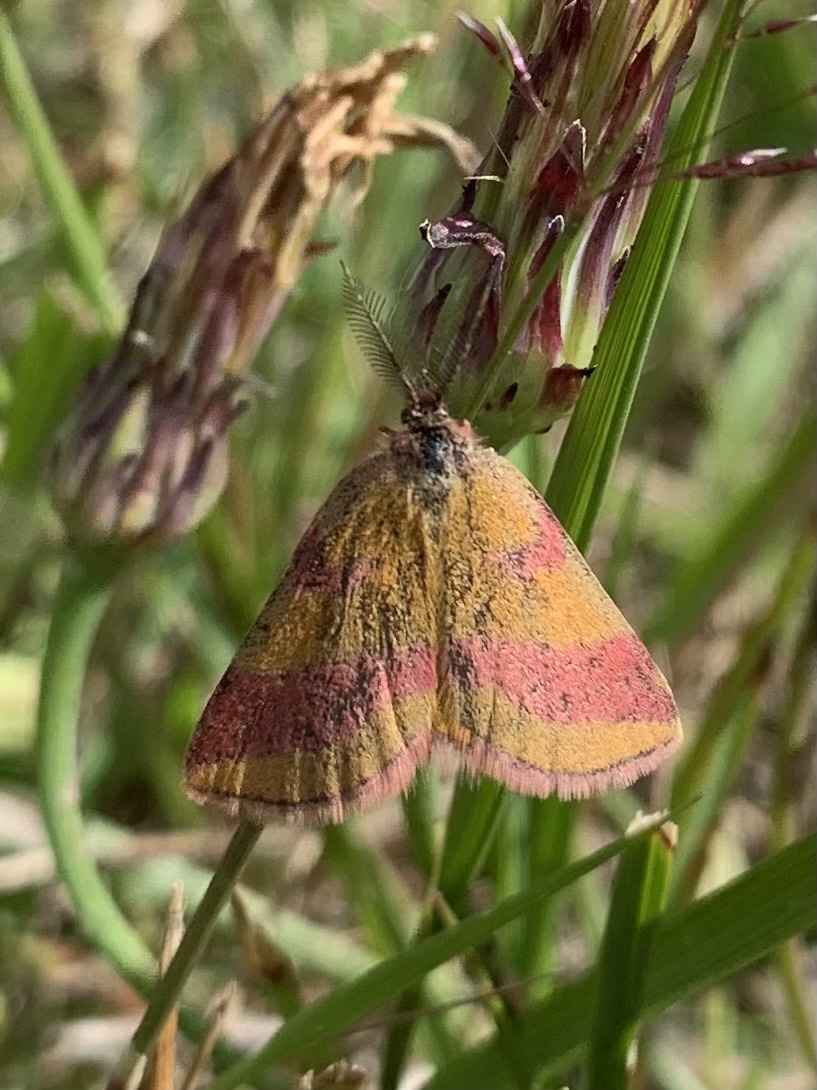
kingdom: Animalia
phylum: Arthropoda
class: Insecta
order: Lepidoptera
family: Geometridae
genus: Lythria
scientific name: Lythria cruentaria
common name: Purple-barred yellow
